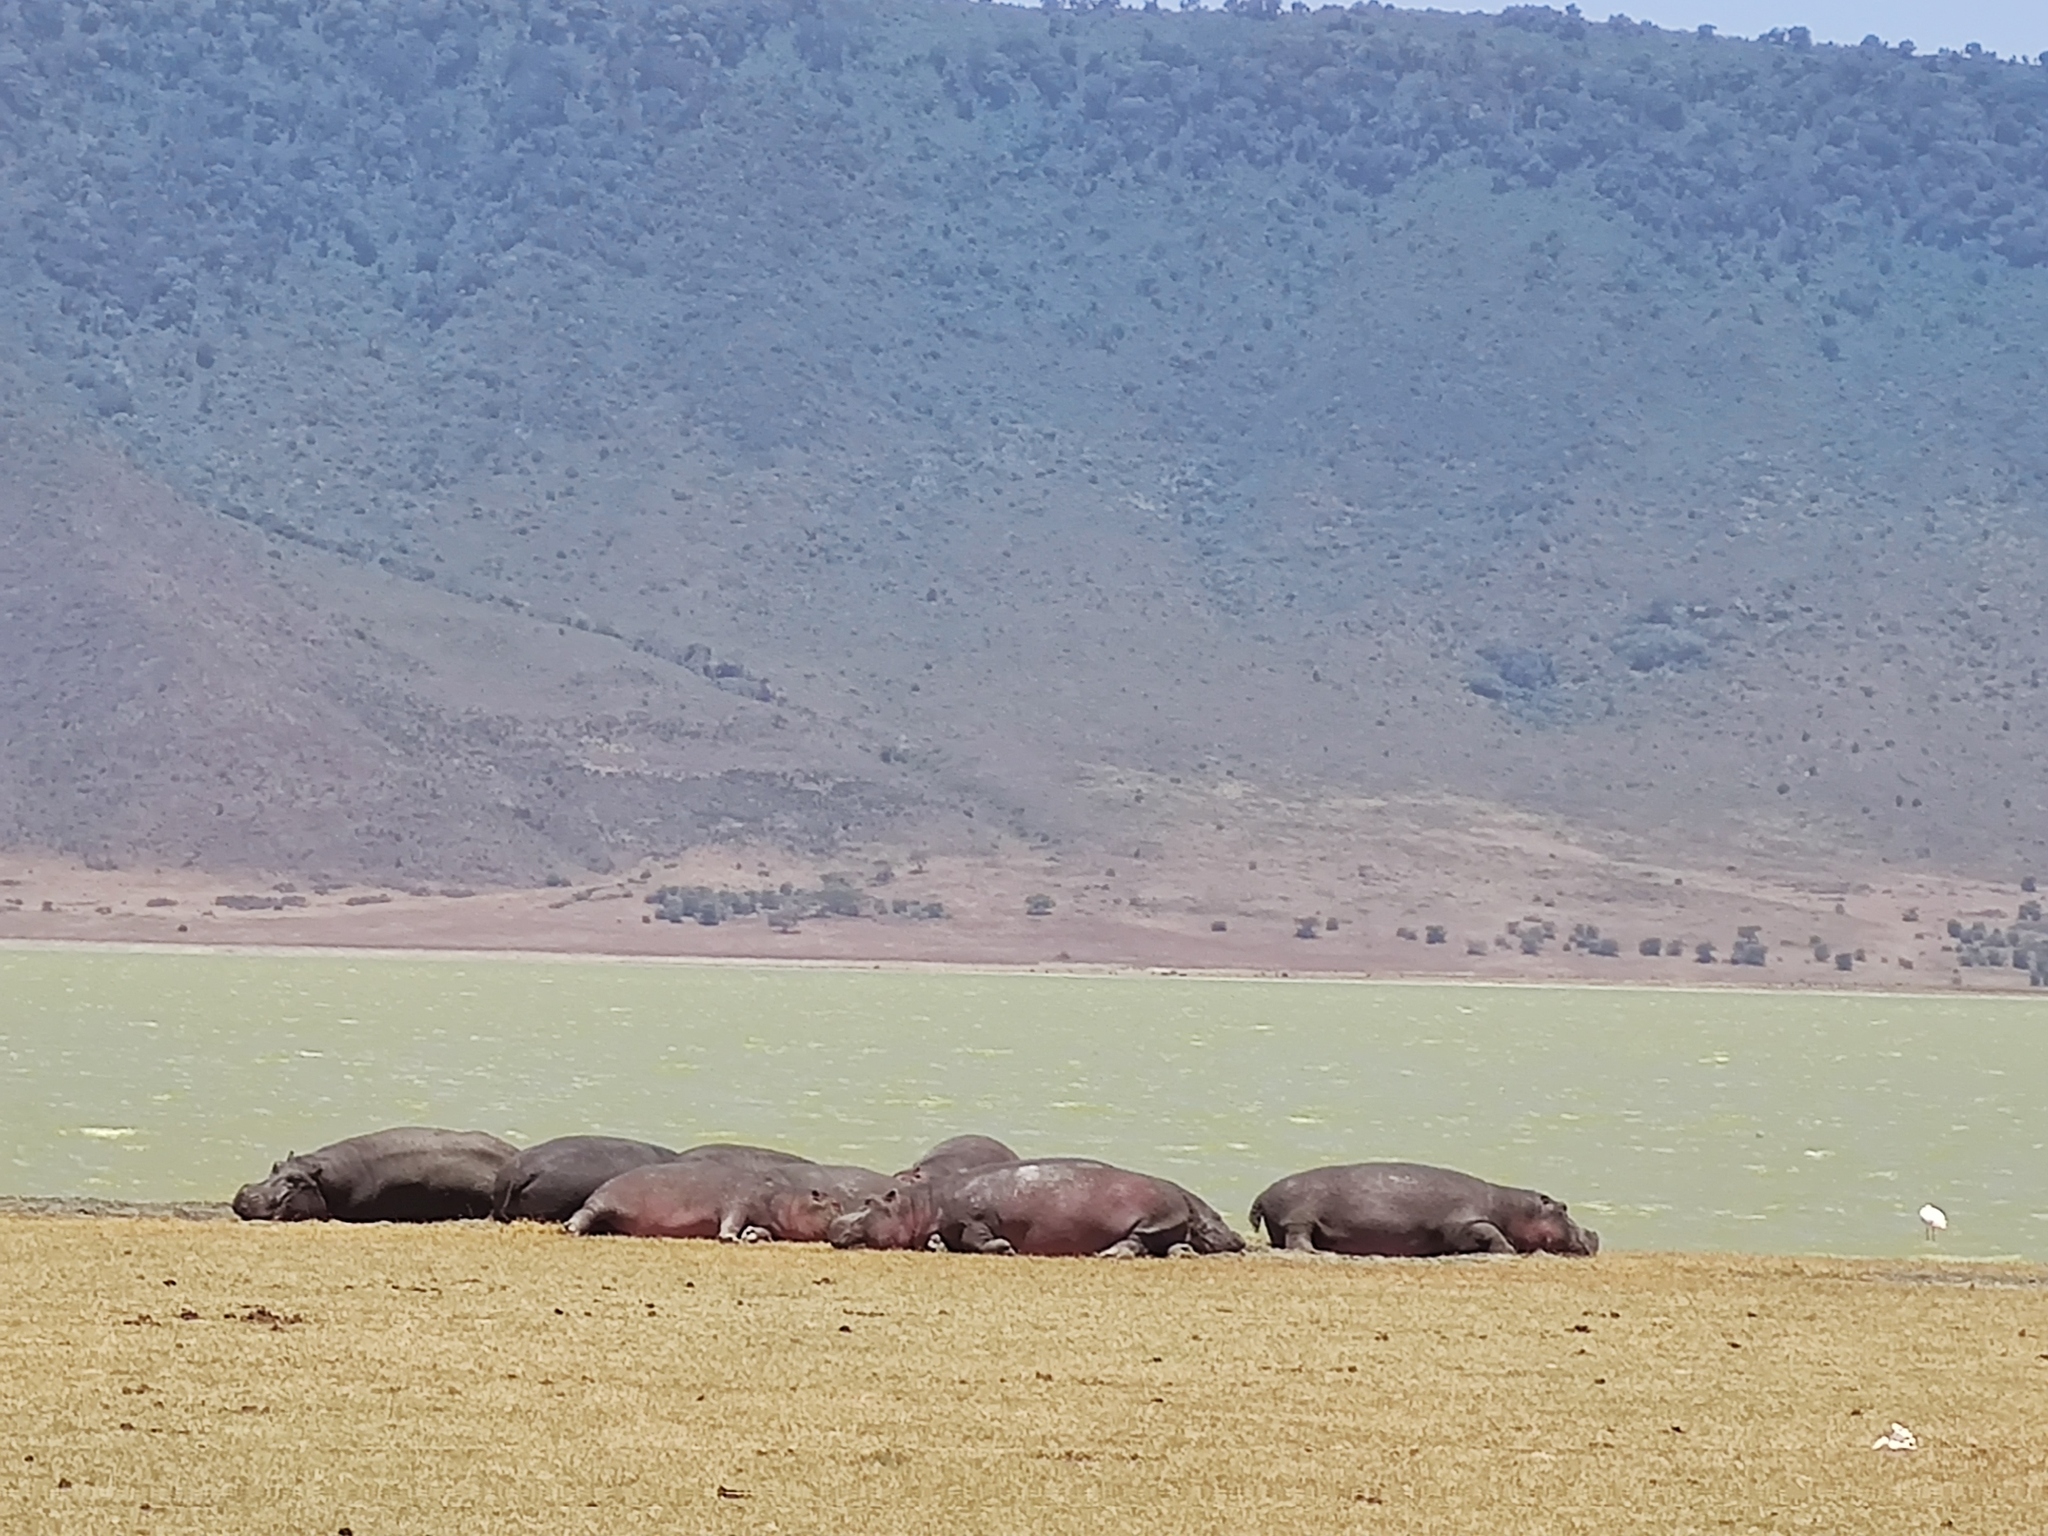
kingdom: Animalia
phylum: Chordata
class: Mammalia
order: Artiodactyla
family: Hippopotamidae
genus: Hippopotamus
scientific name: Hippopotamus amphibius
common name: Common hippopotamus
